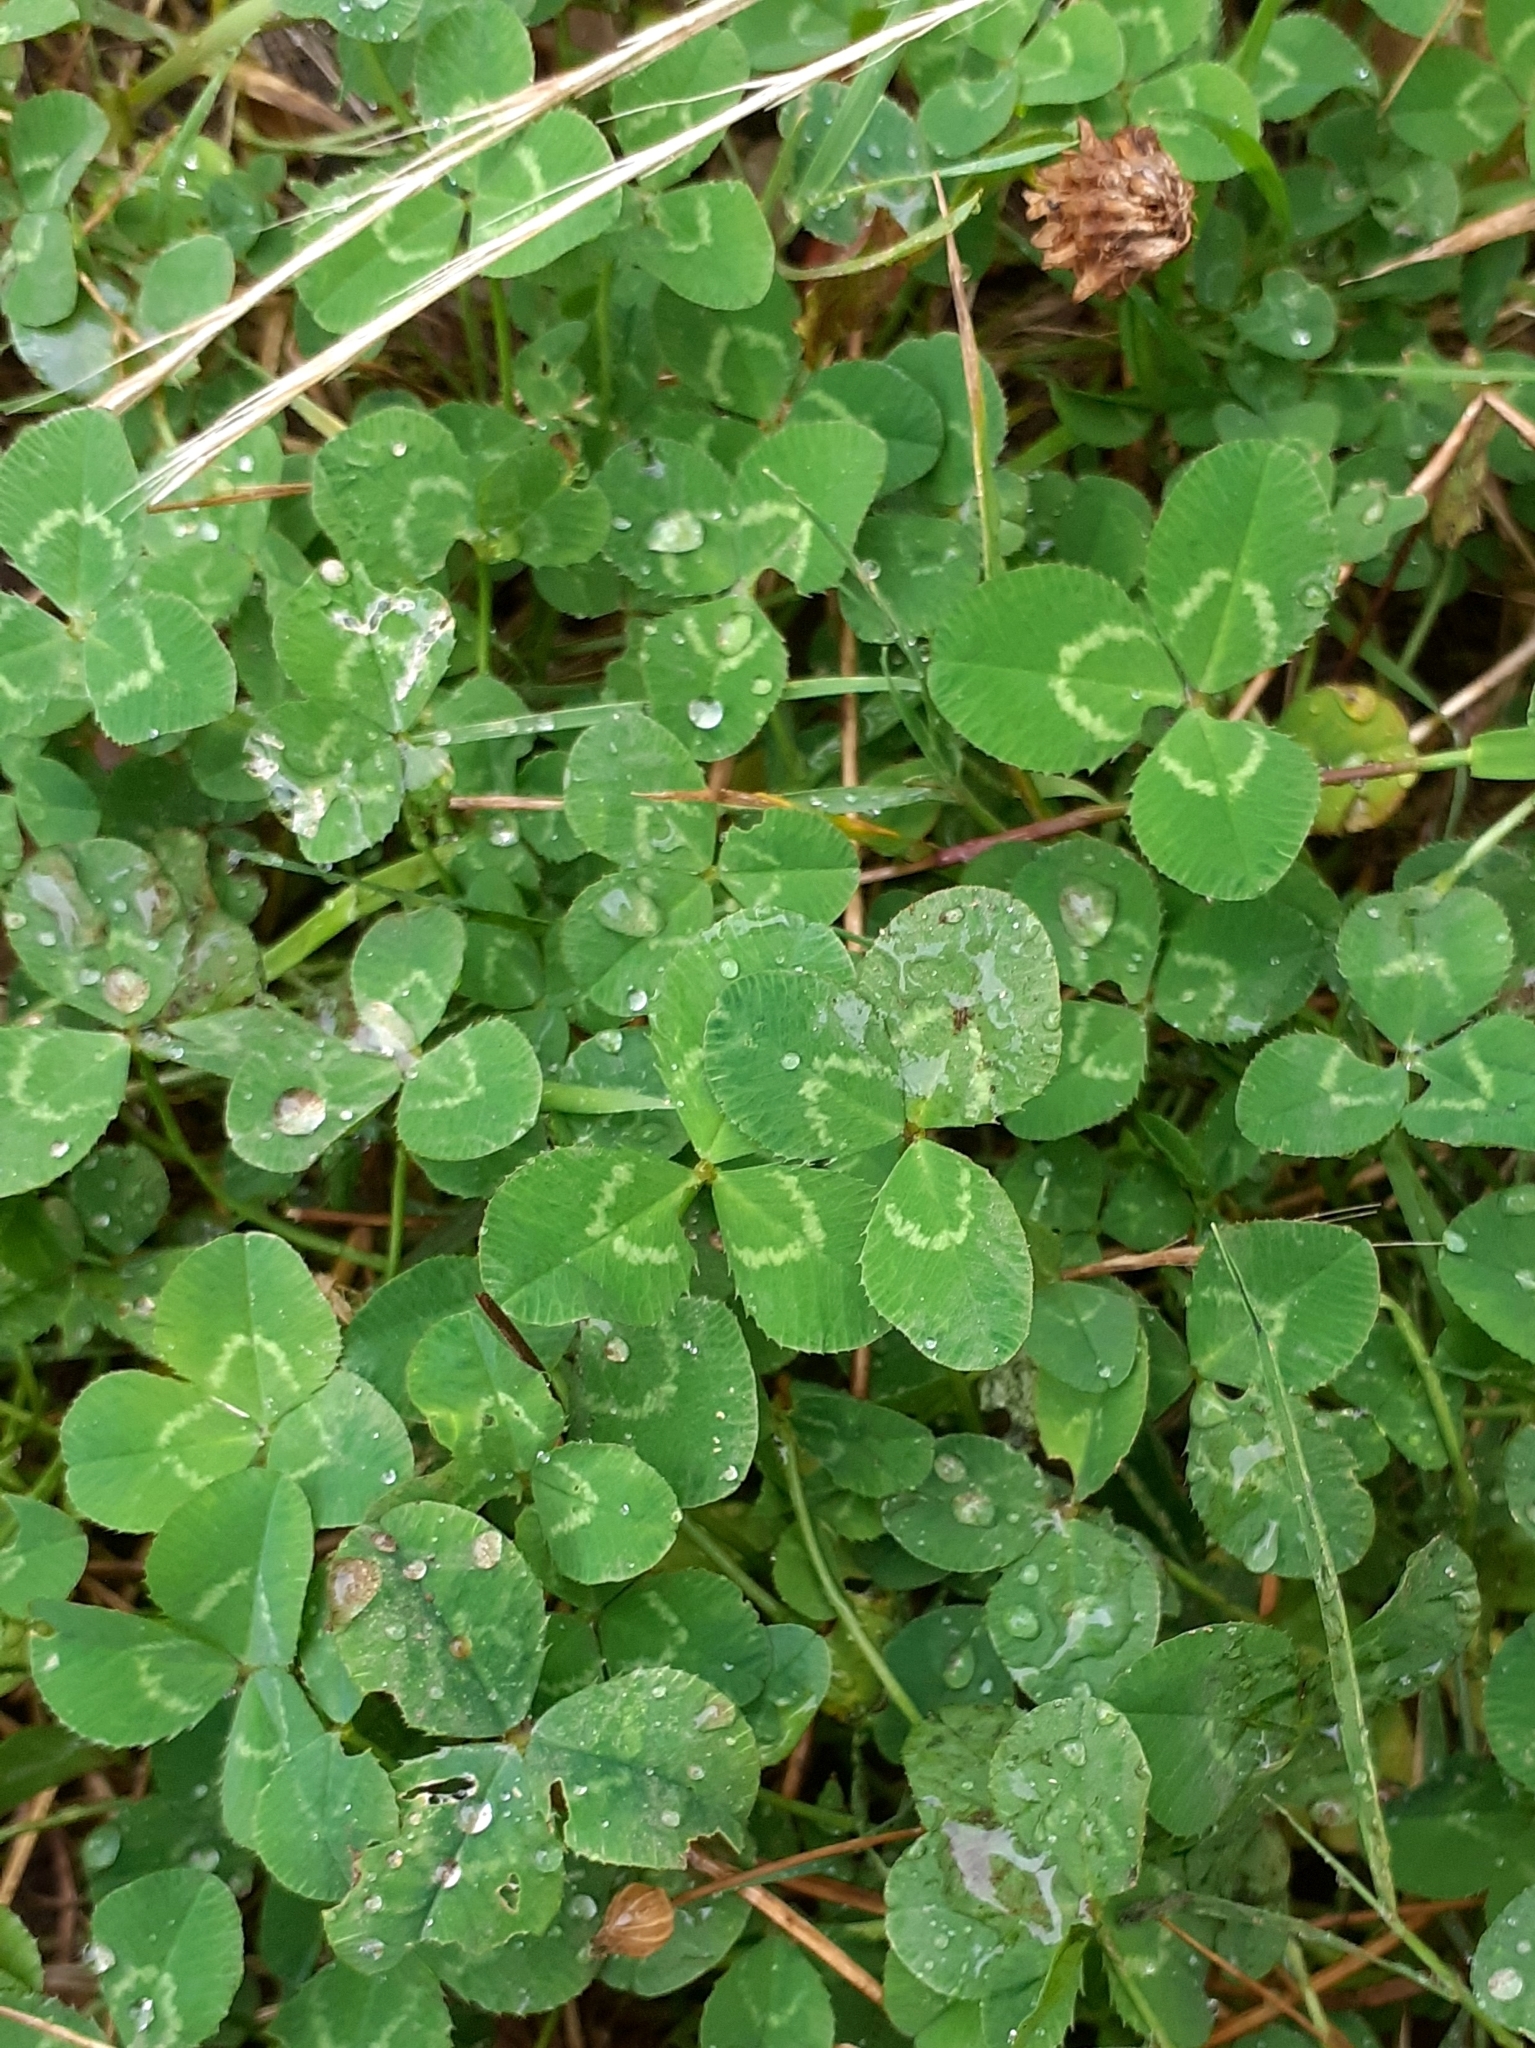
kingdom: Plantae
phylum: Tracheophyta
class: Magnoliopsida
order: Fabales
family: Fabaceae
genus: Trifolium
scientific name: Trifolium repens
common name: White clover
